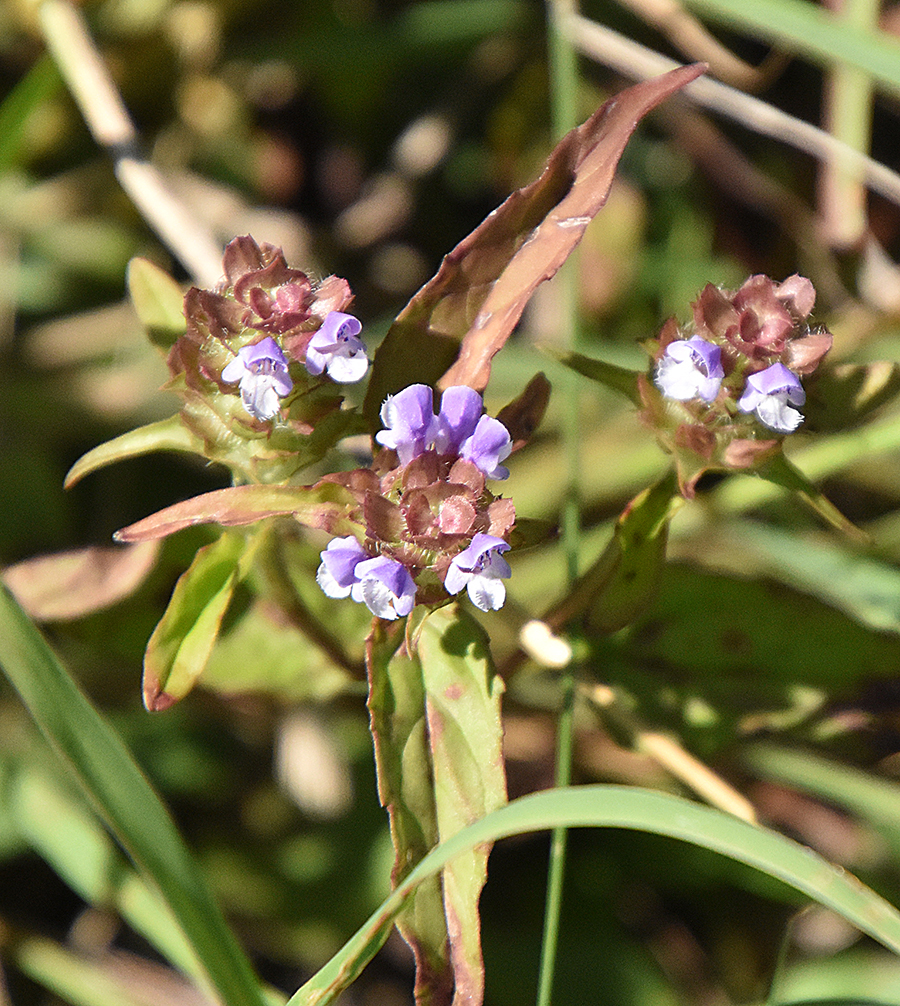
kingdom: Plantae
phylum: Tracheophyta
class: Magnoliopsida
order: Lamiales
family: Lamiaceae
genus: Prunella
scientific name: Prunella vulgaris
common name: Heal-all
